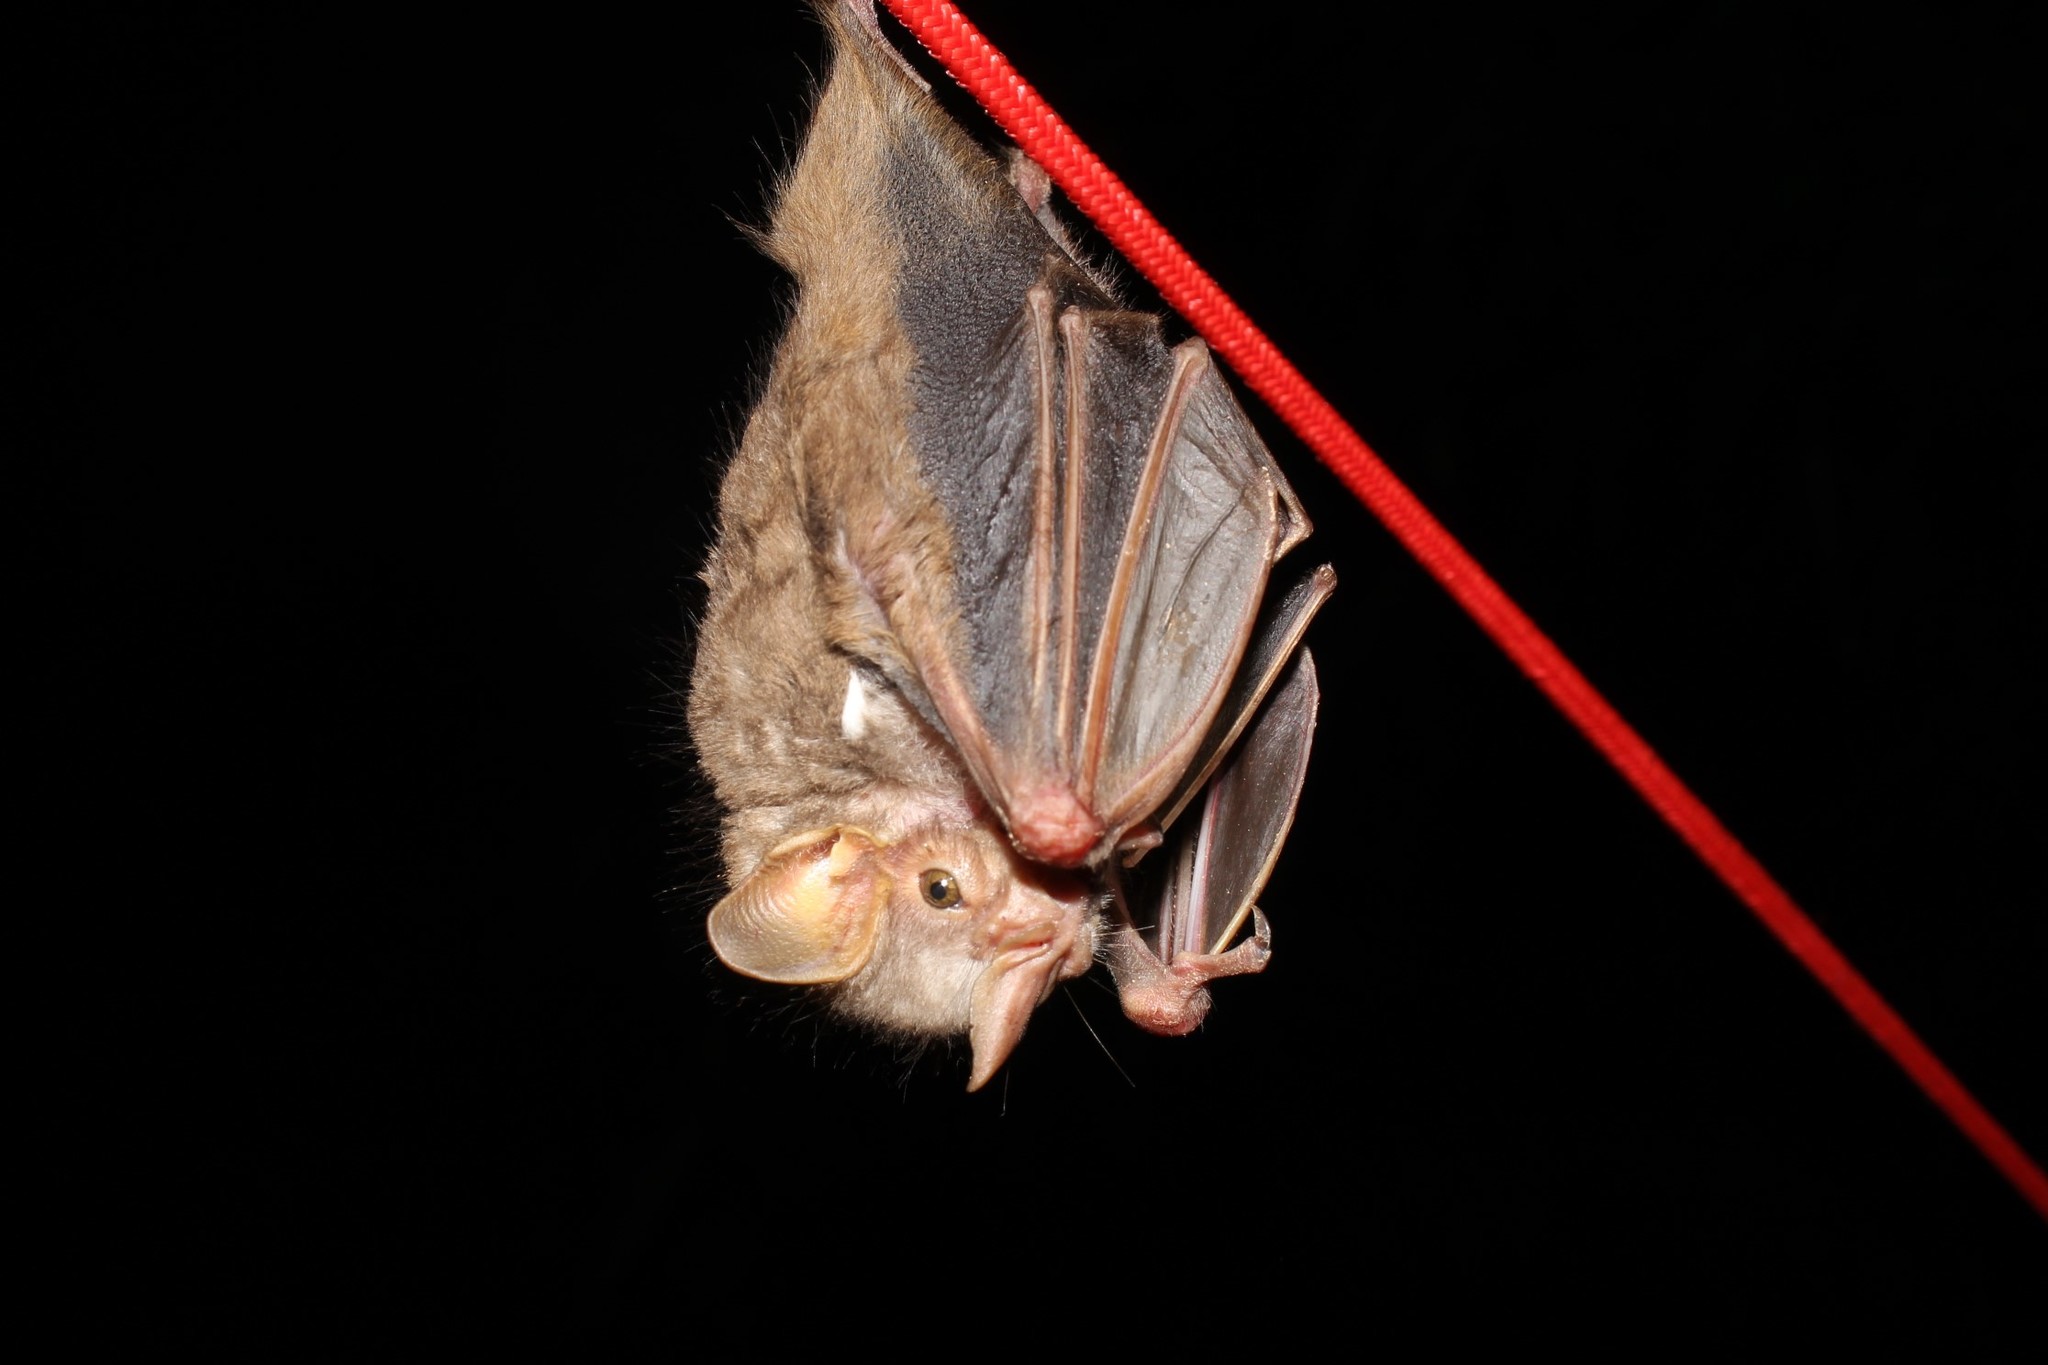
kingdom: Animalia
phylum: Chordata
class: Mammalia
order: Chiroptera
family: Phyllostomidae
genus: Pygoderma
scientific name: Pygoderma bilabiatum
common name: Ipanema broad-nosed bat
